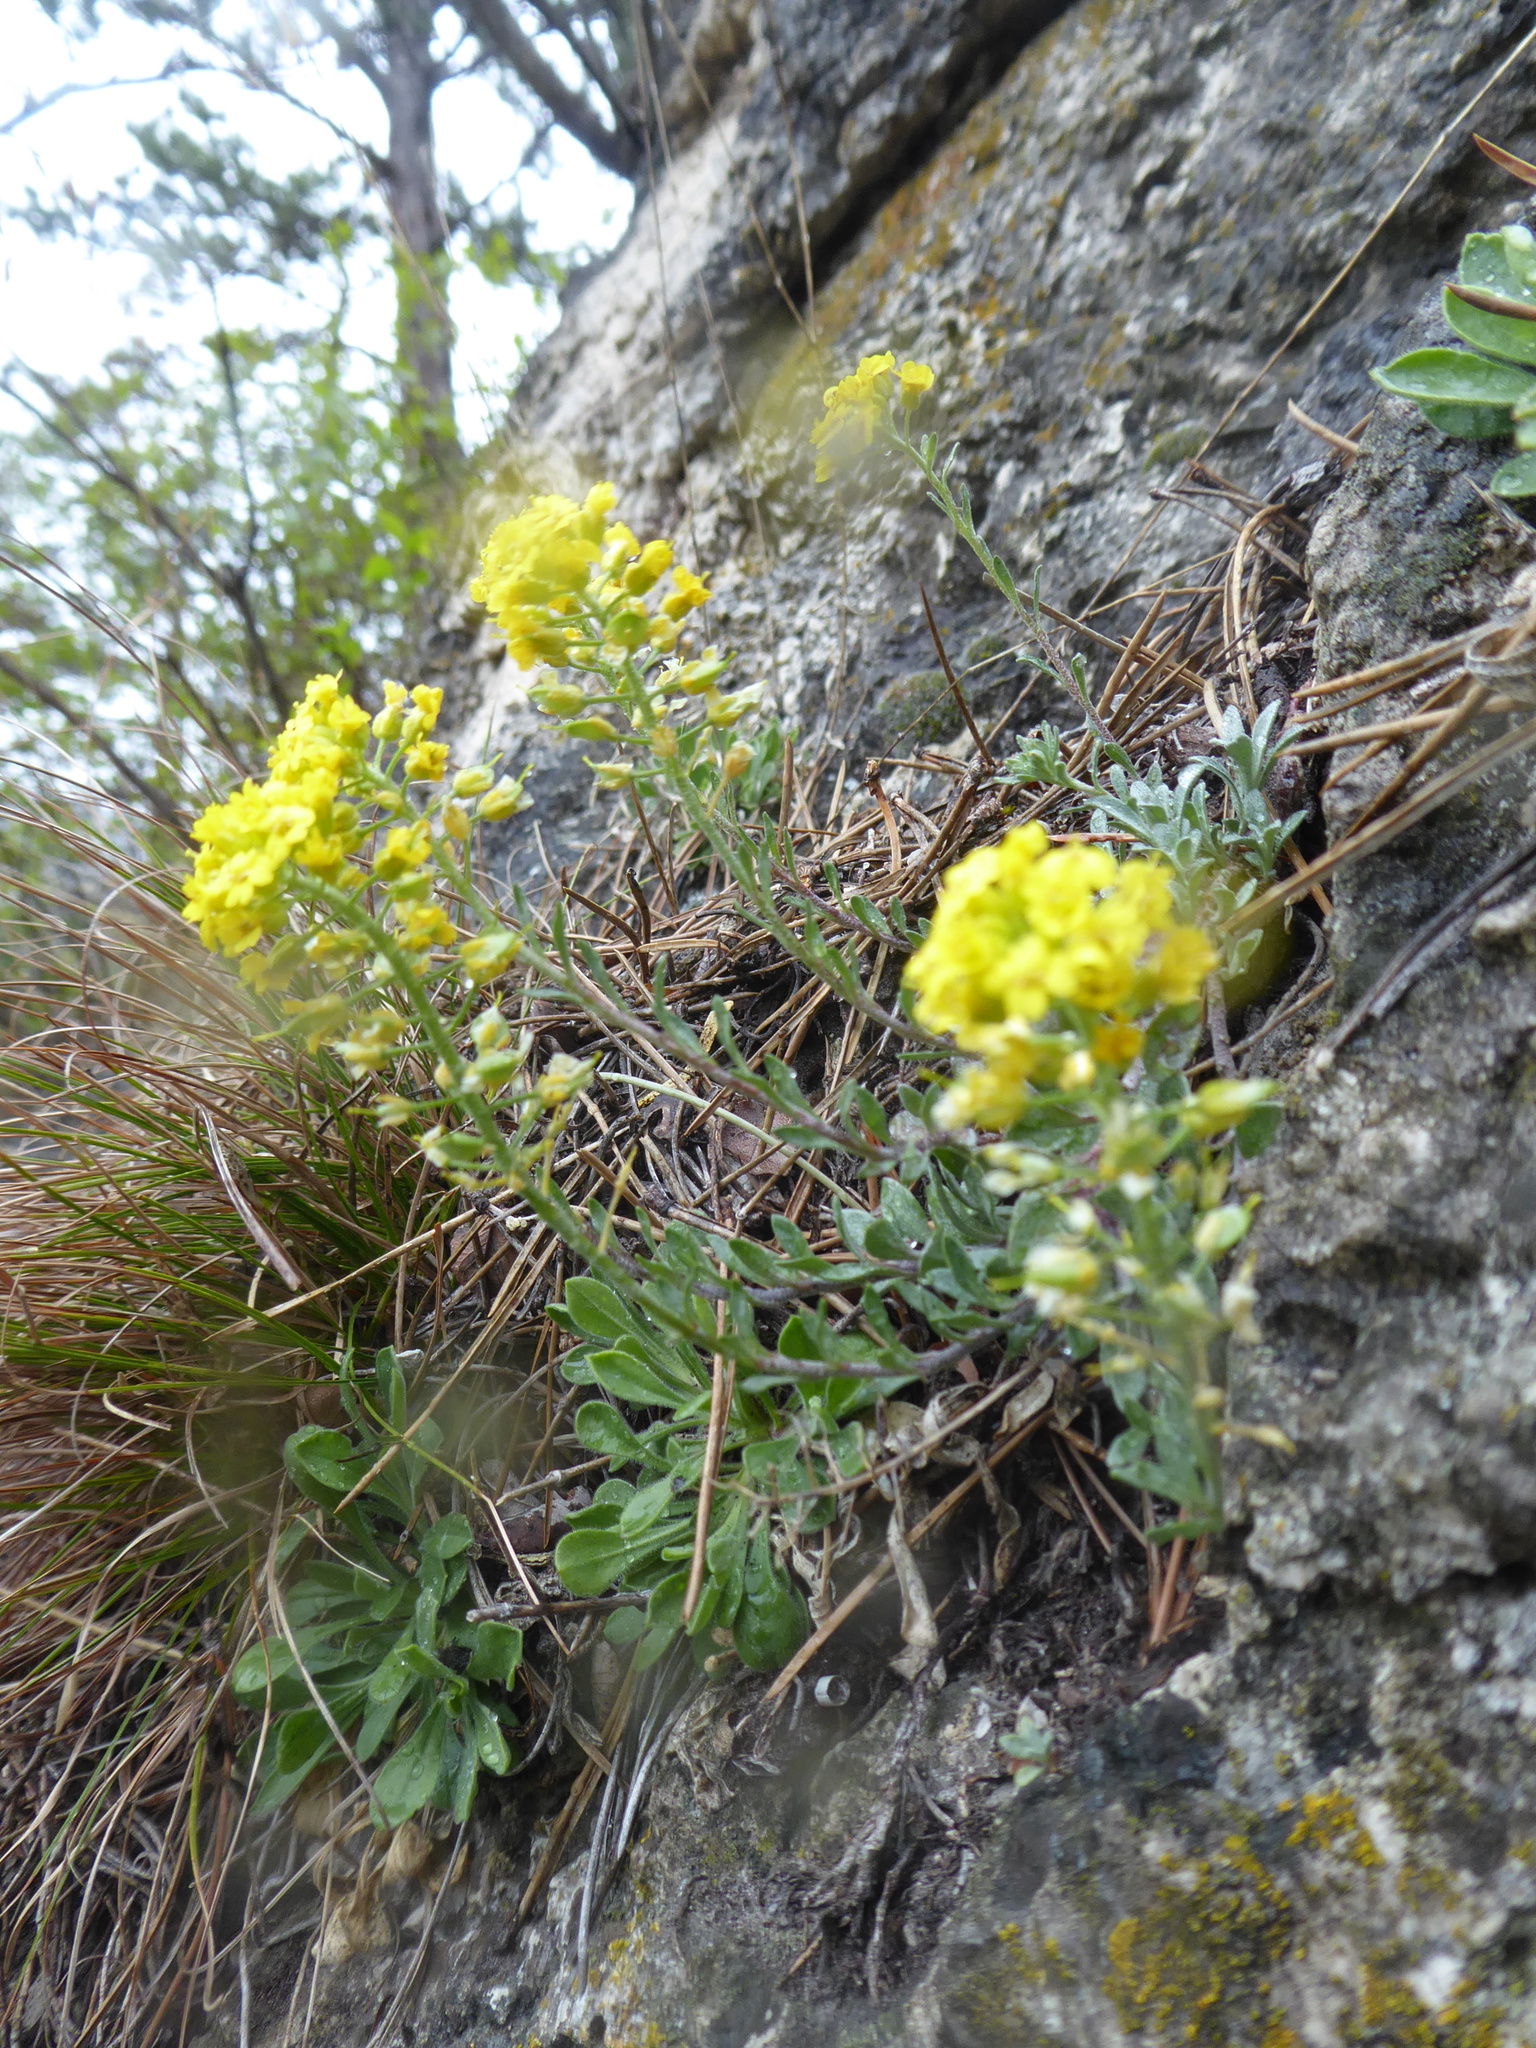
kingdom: Plantae
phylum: Tracheophyta
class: Magnoliopsida
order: Brassicales
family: Brassicaceae
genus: Alyssum
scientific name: Alyssum gmelinii
